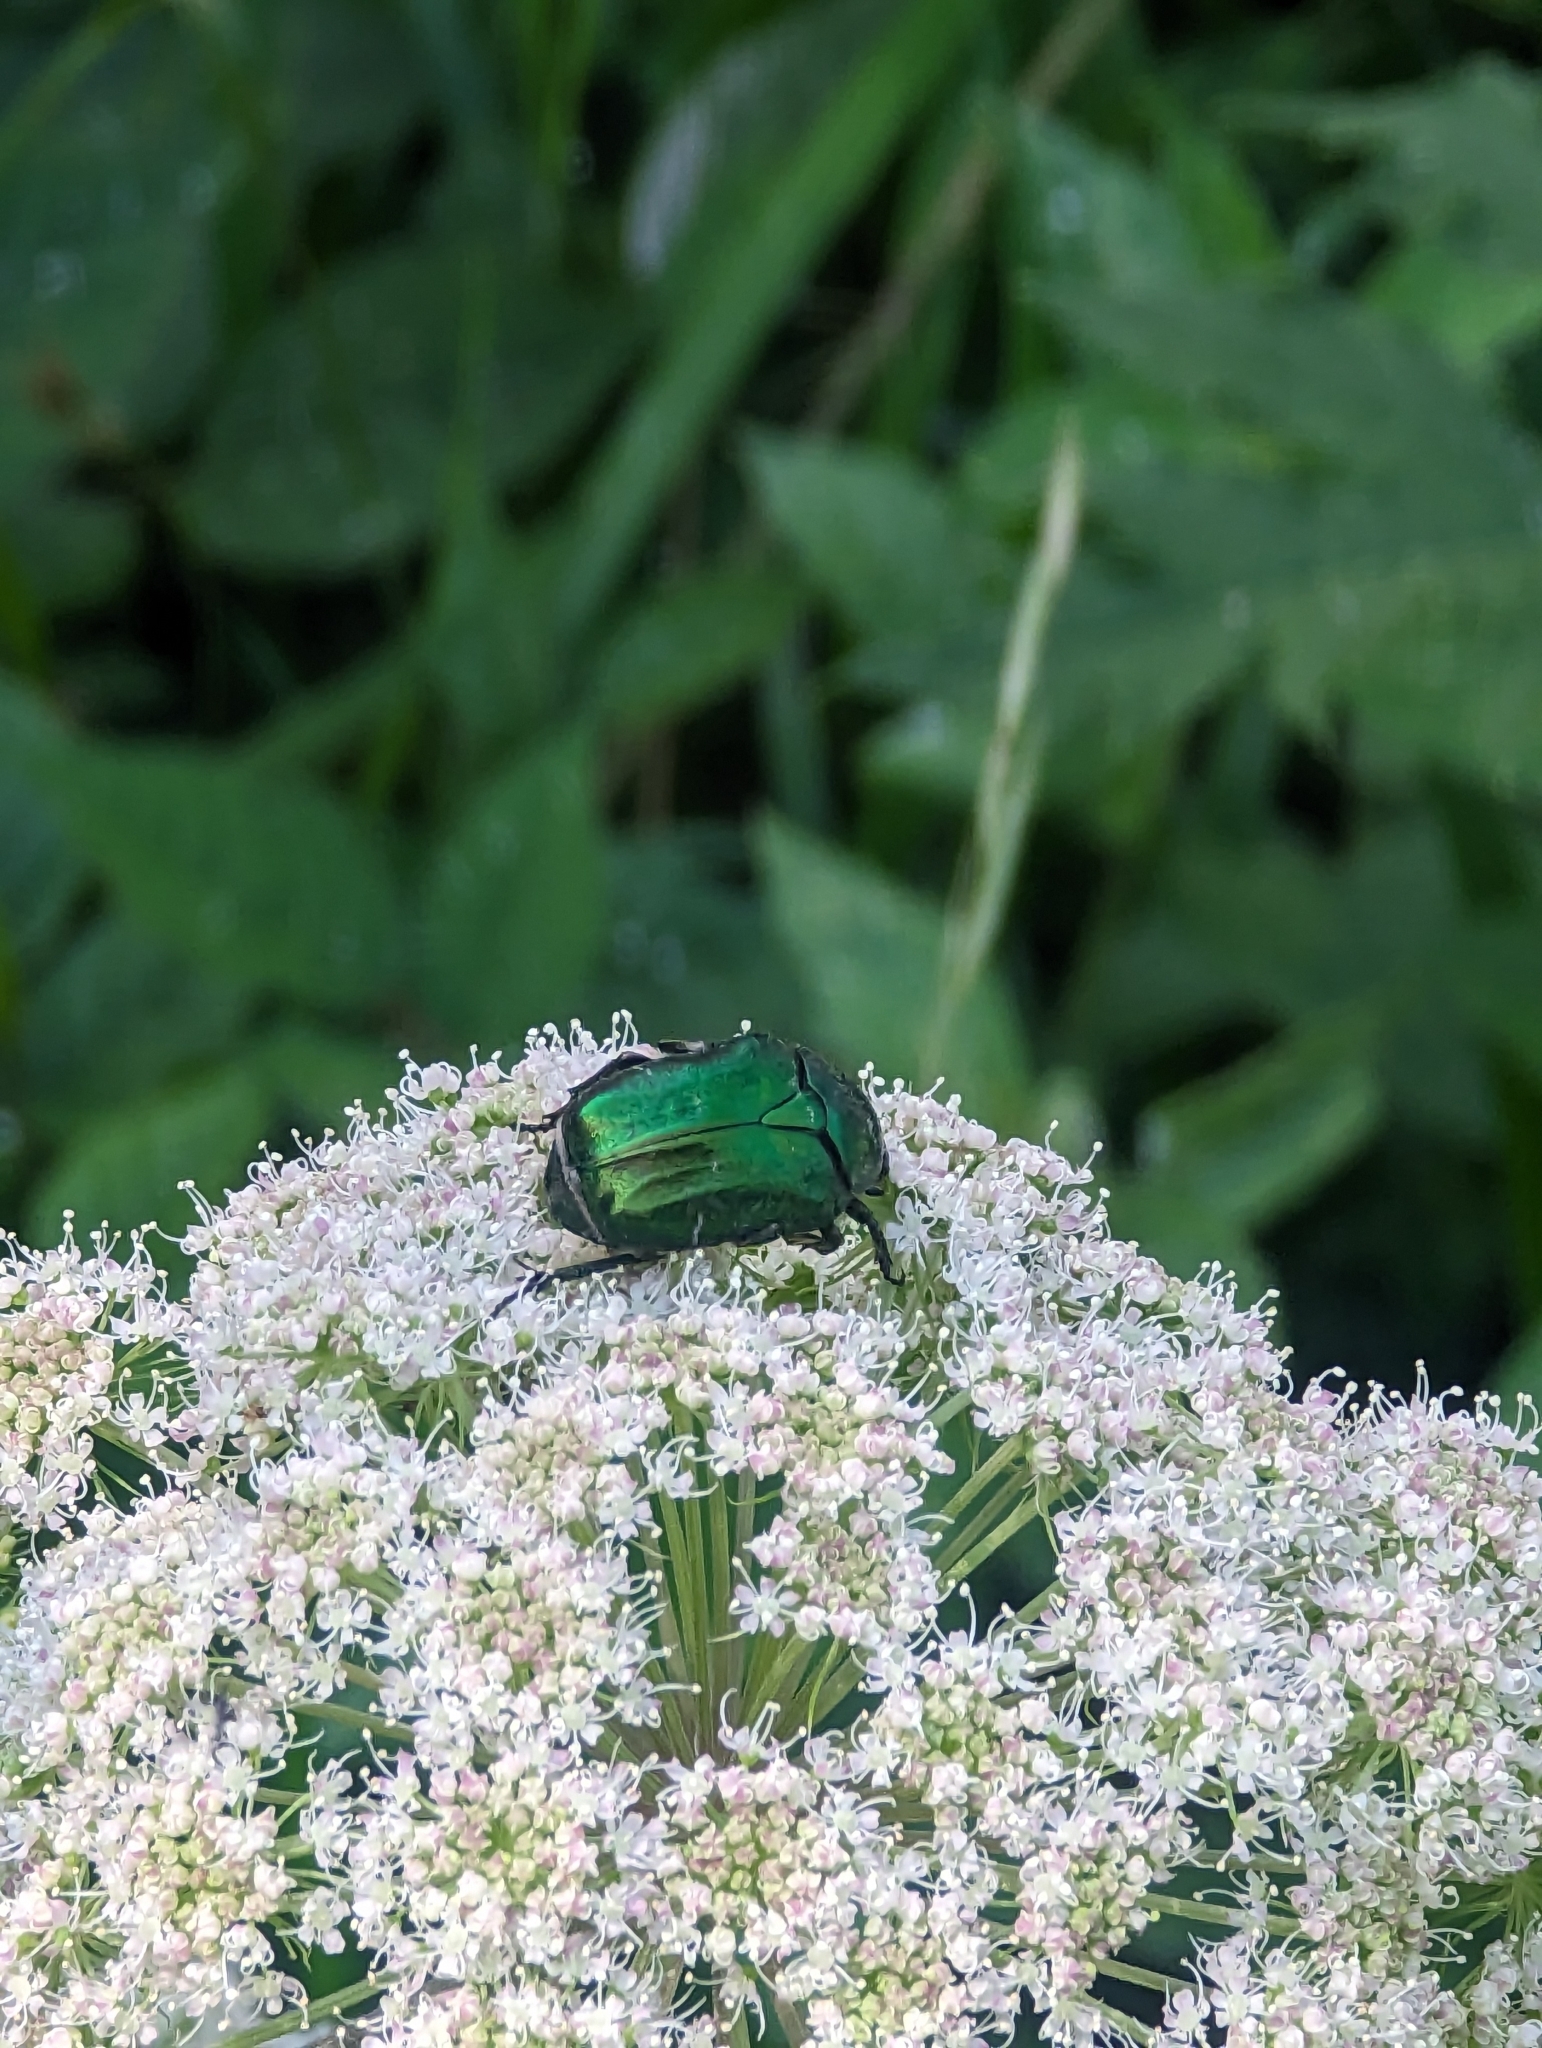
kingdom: Animalia
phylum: Arthropoda
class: Insecta
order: Coleoptera
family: Scarabaeidae
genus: Cetonia
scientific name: Cetonia aurata
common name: Rose chafer
